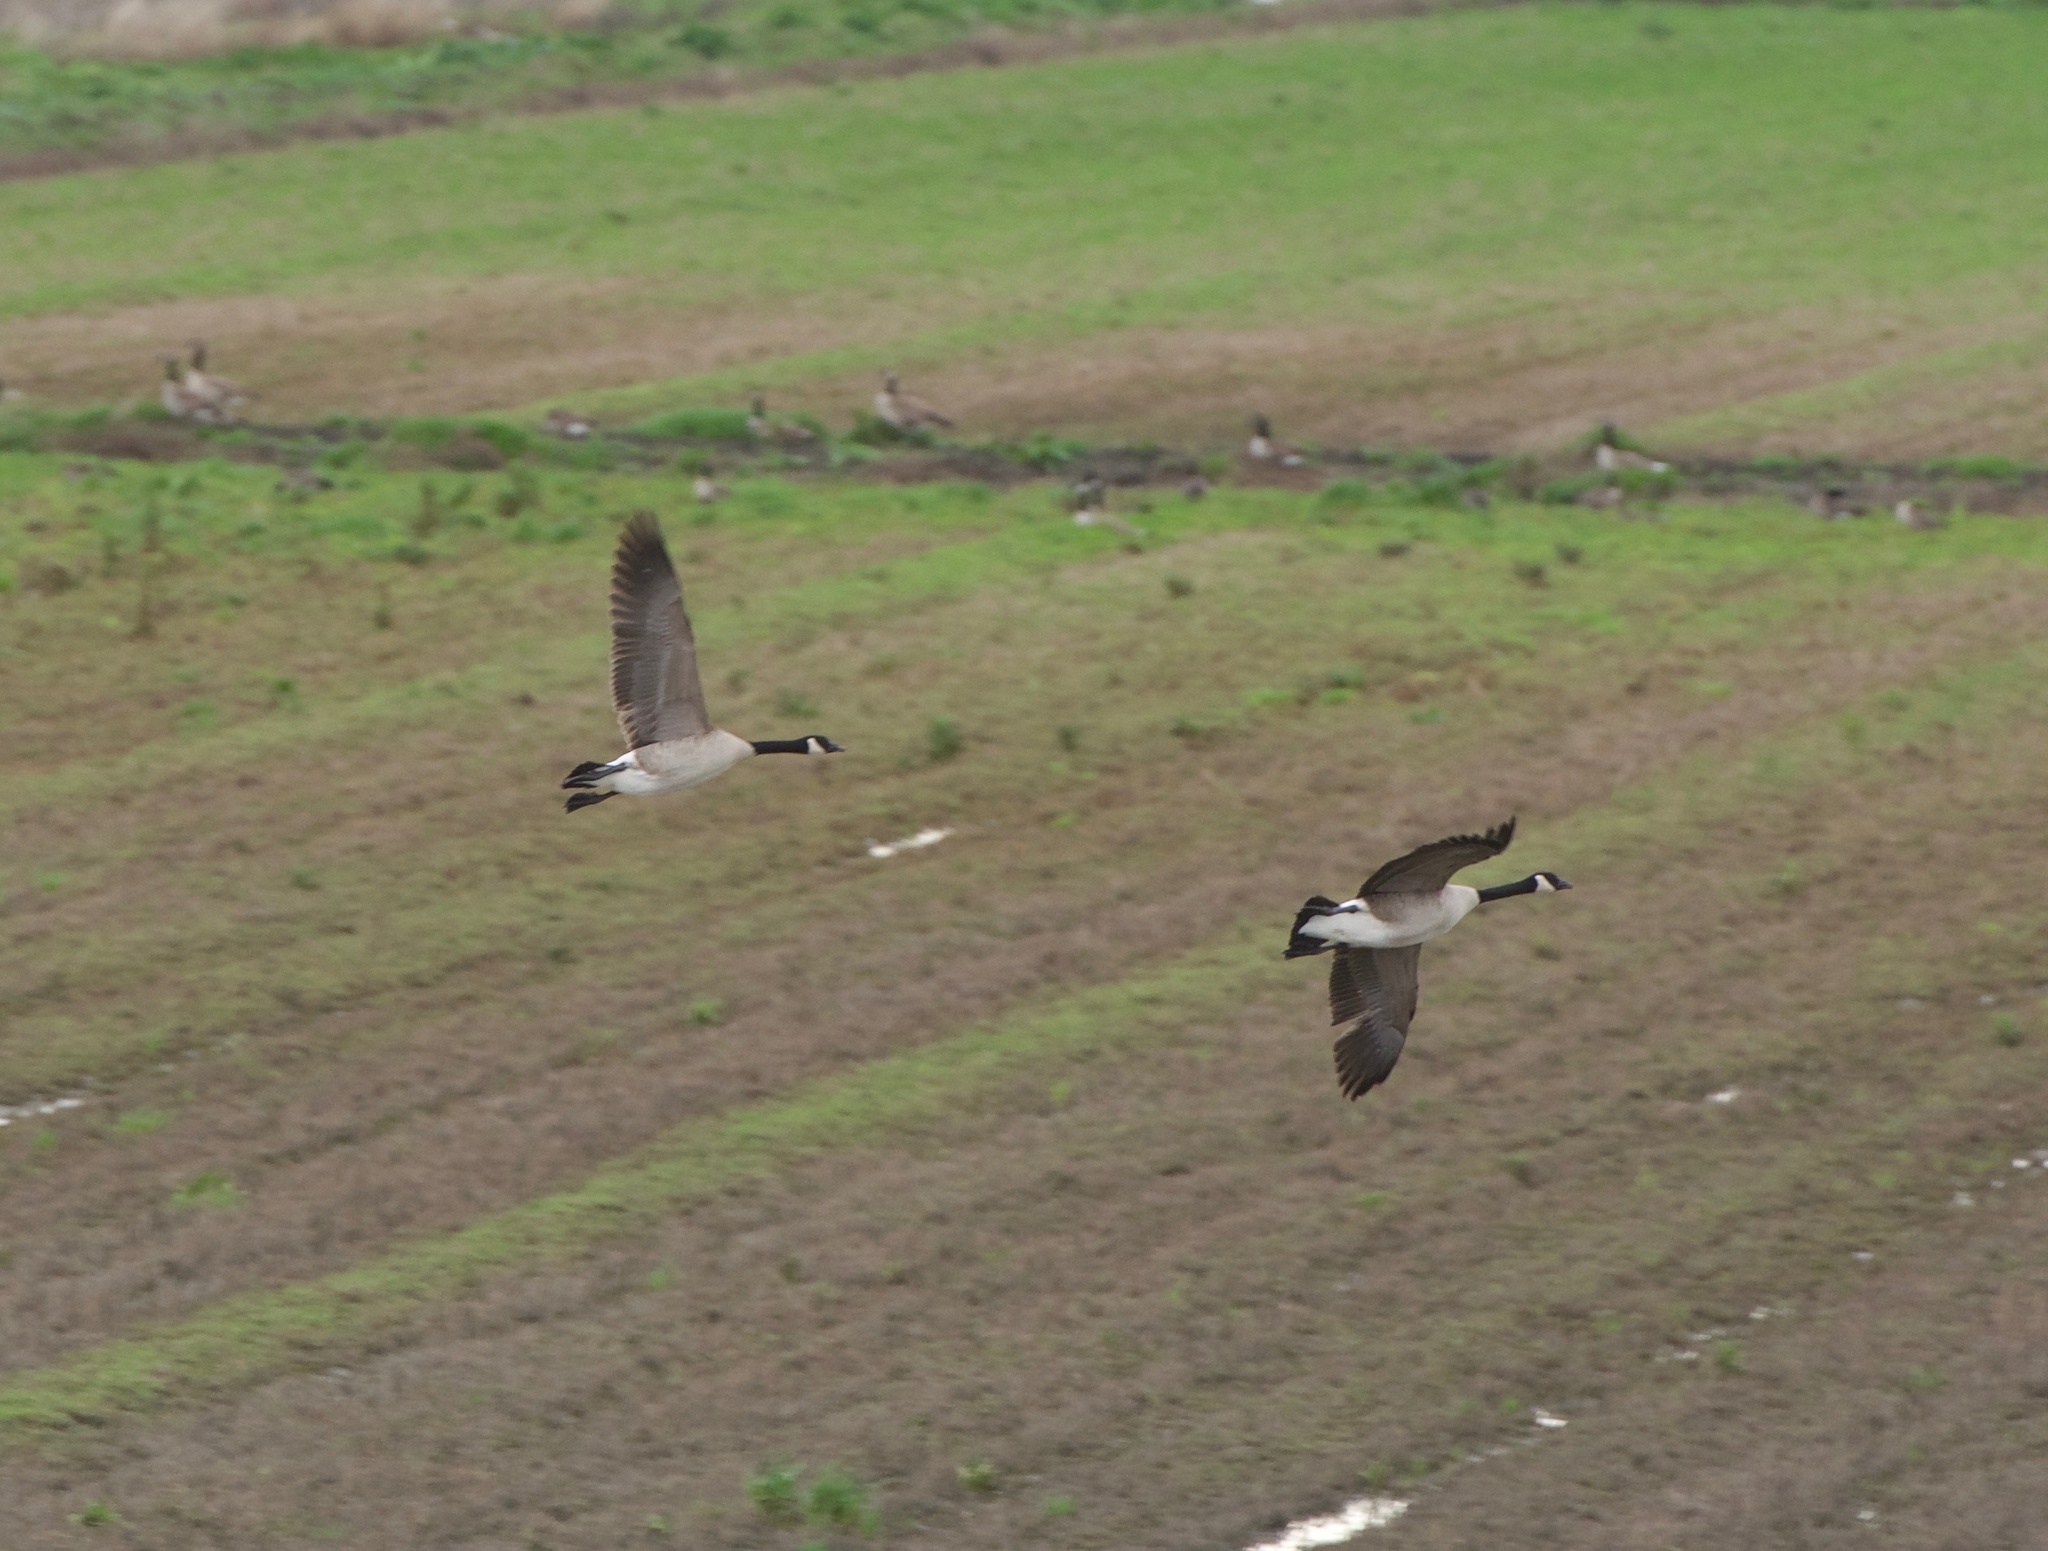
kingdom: Animalia
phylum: Chordata
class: Aves
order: Anseriformes
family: Anatidae
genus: Branta
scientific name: Branta canadensis
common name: Canada goose
